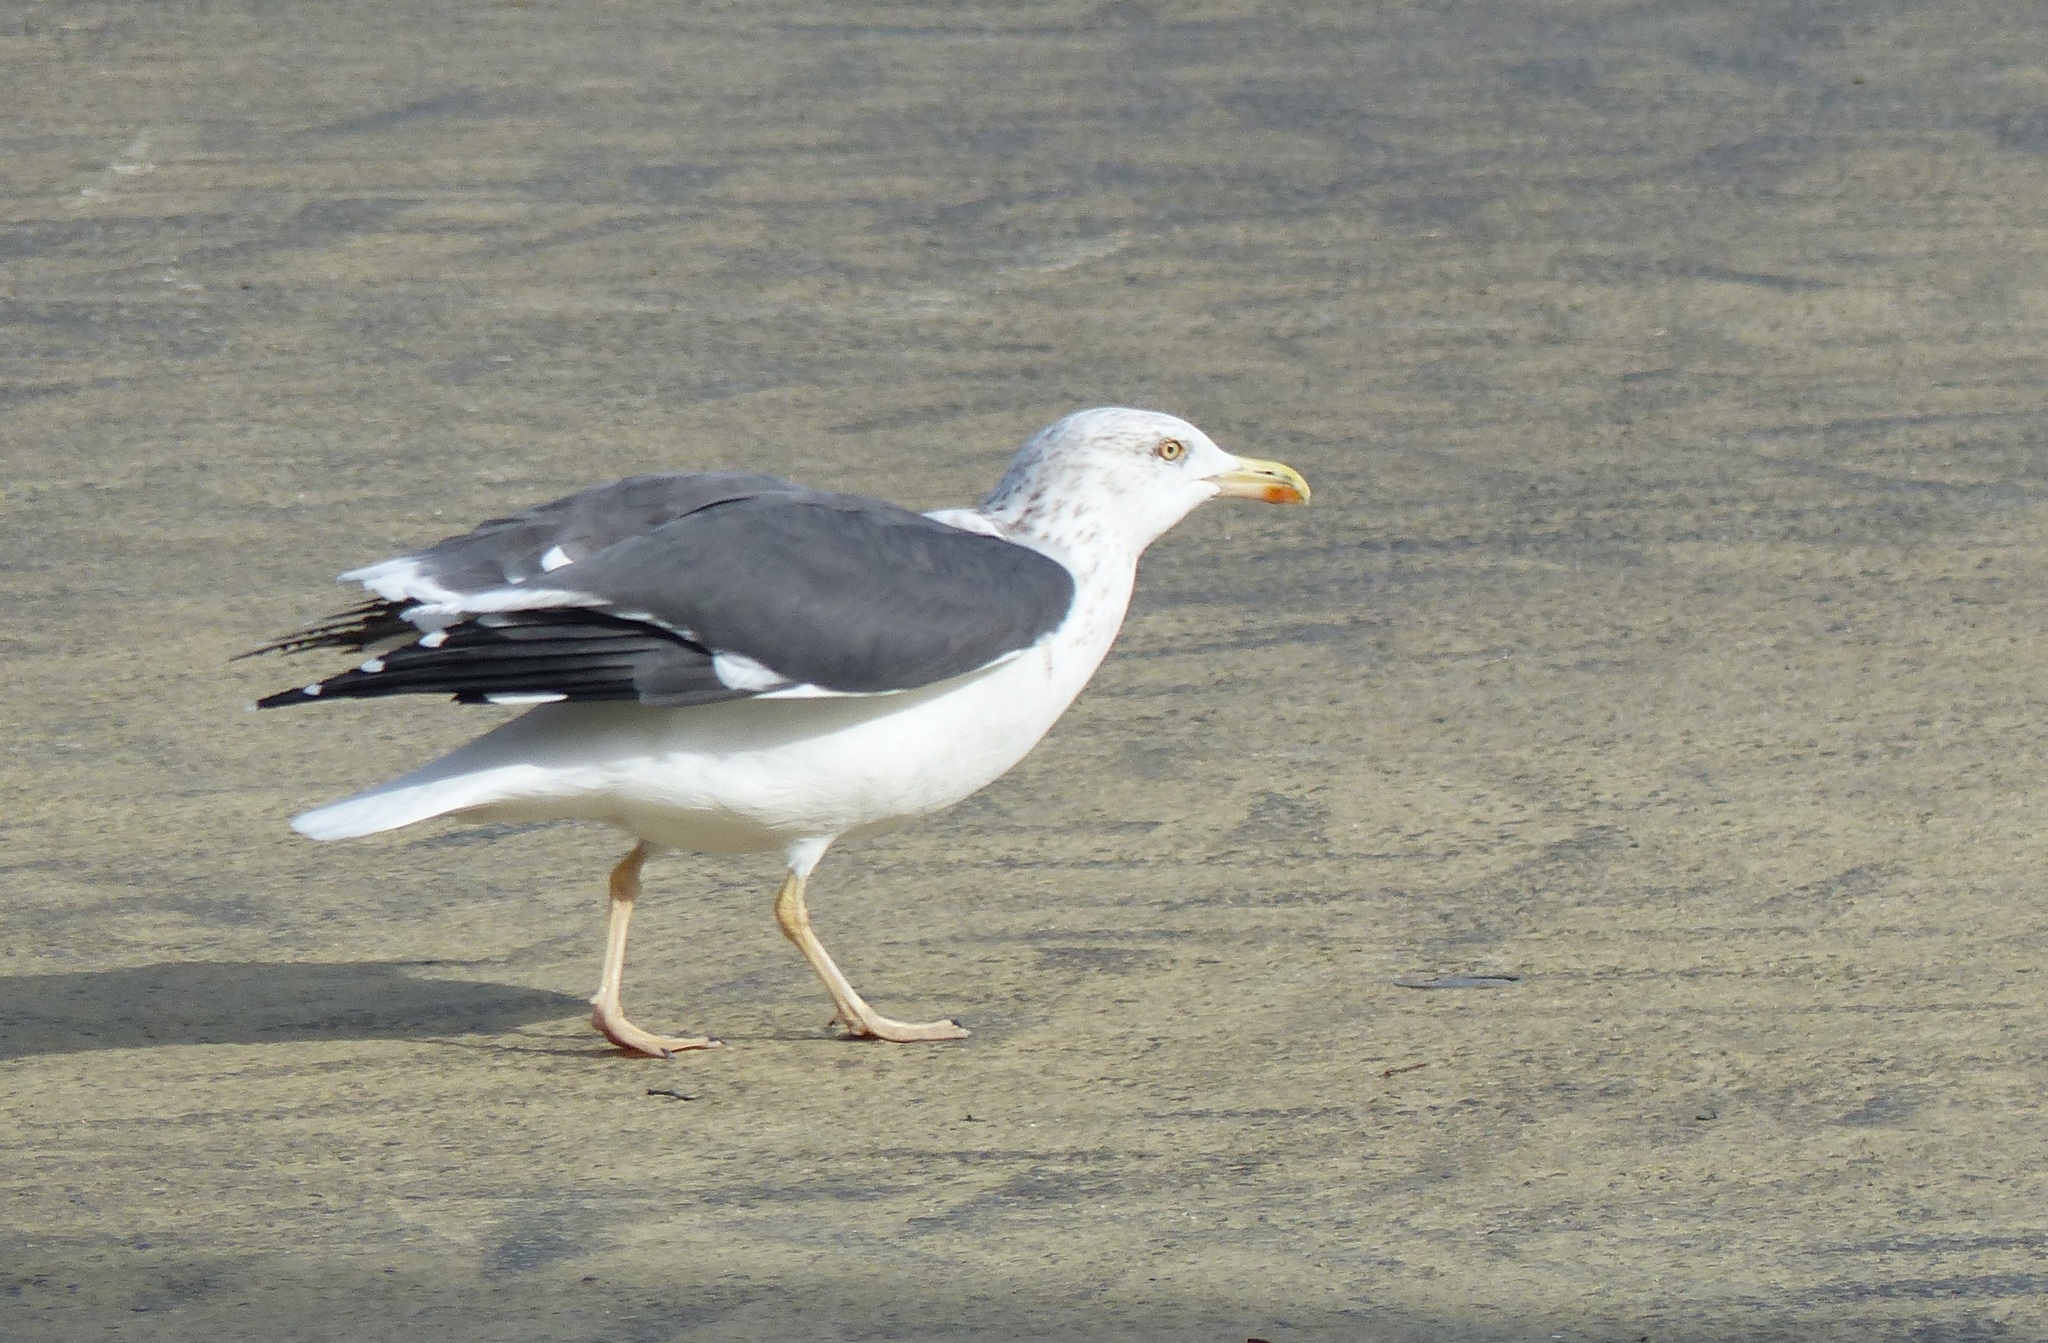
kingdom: Animalia
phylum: Chordata
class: Aves
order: Charadriiformes
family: Laridae
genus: Larus
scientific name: Larus fuscus
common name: Lesser black-backed gull
